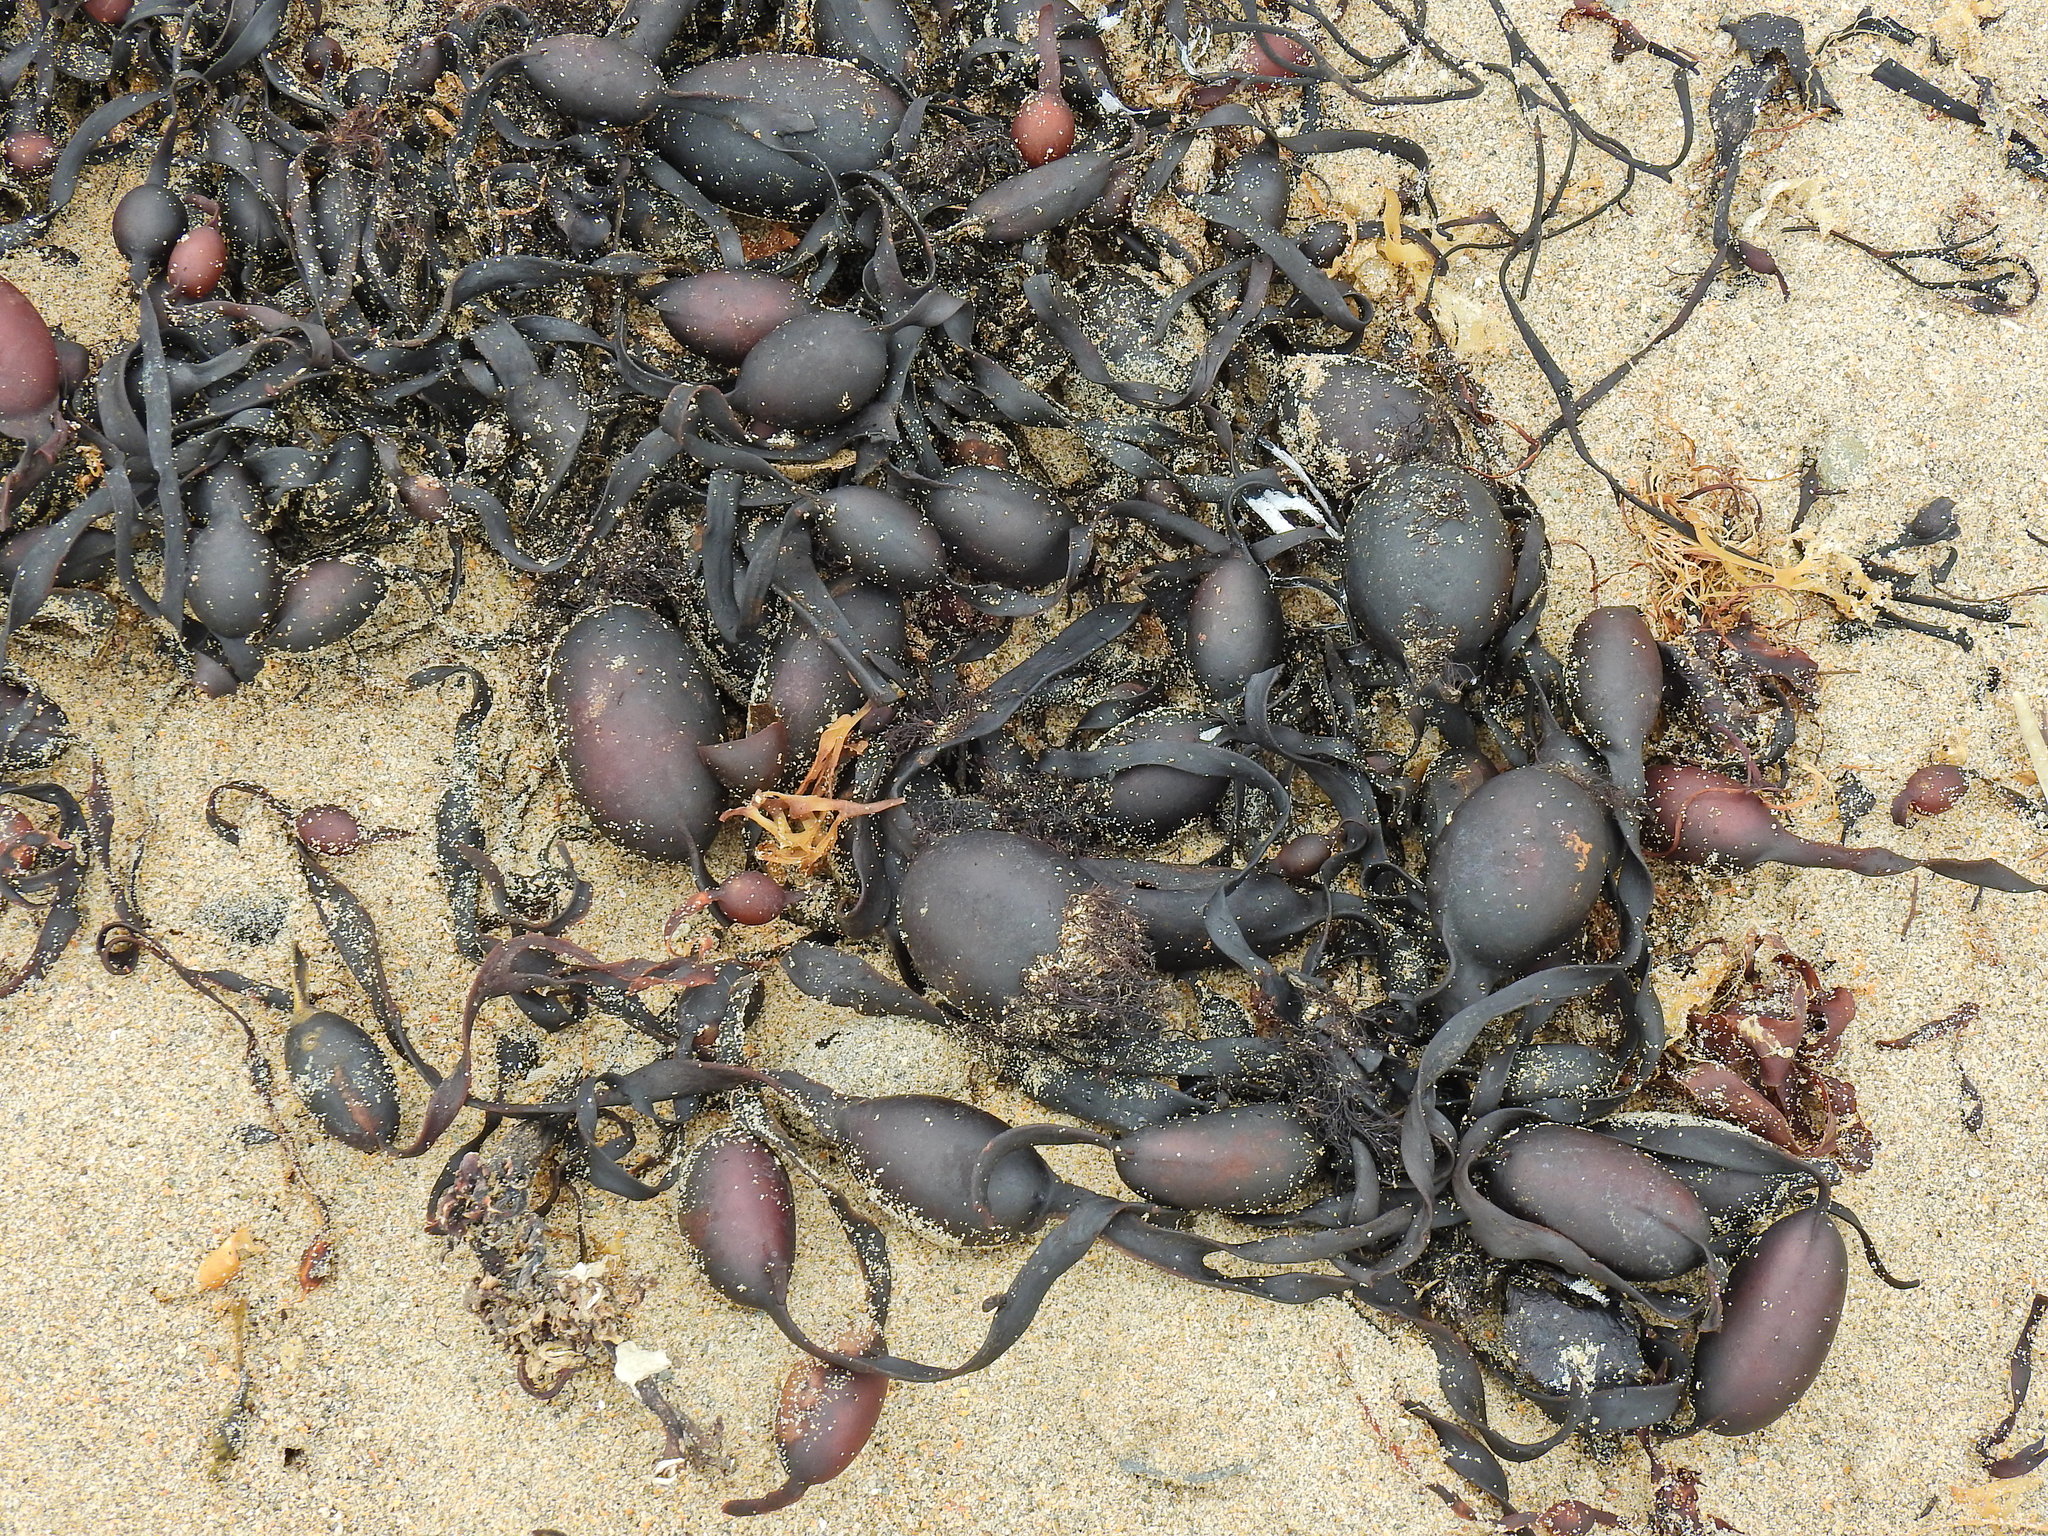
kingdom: Chromista
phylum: Ochrophyta
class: Phaeophyceae
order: Fucales
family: Fucaceae
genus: Ascophyllum
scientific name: Ascophyllum nodosum
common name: Knotted wrack
